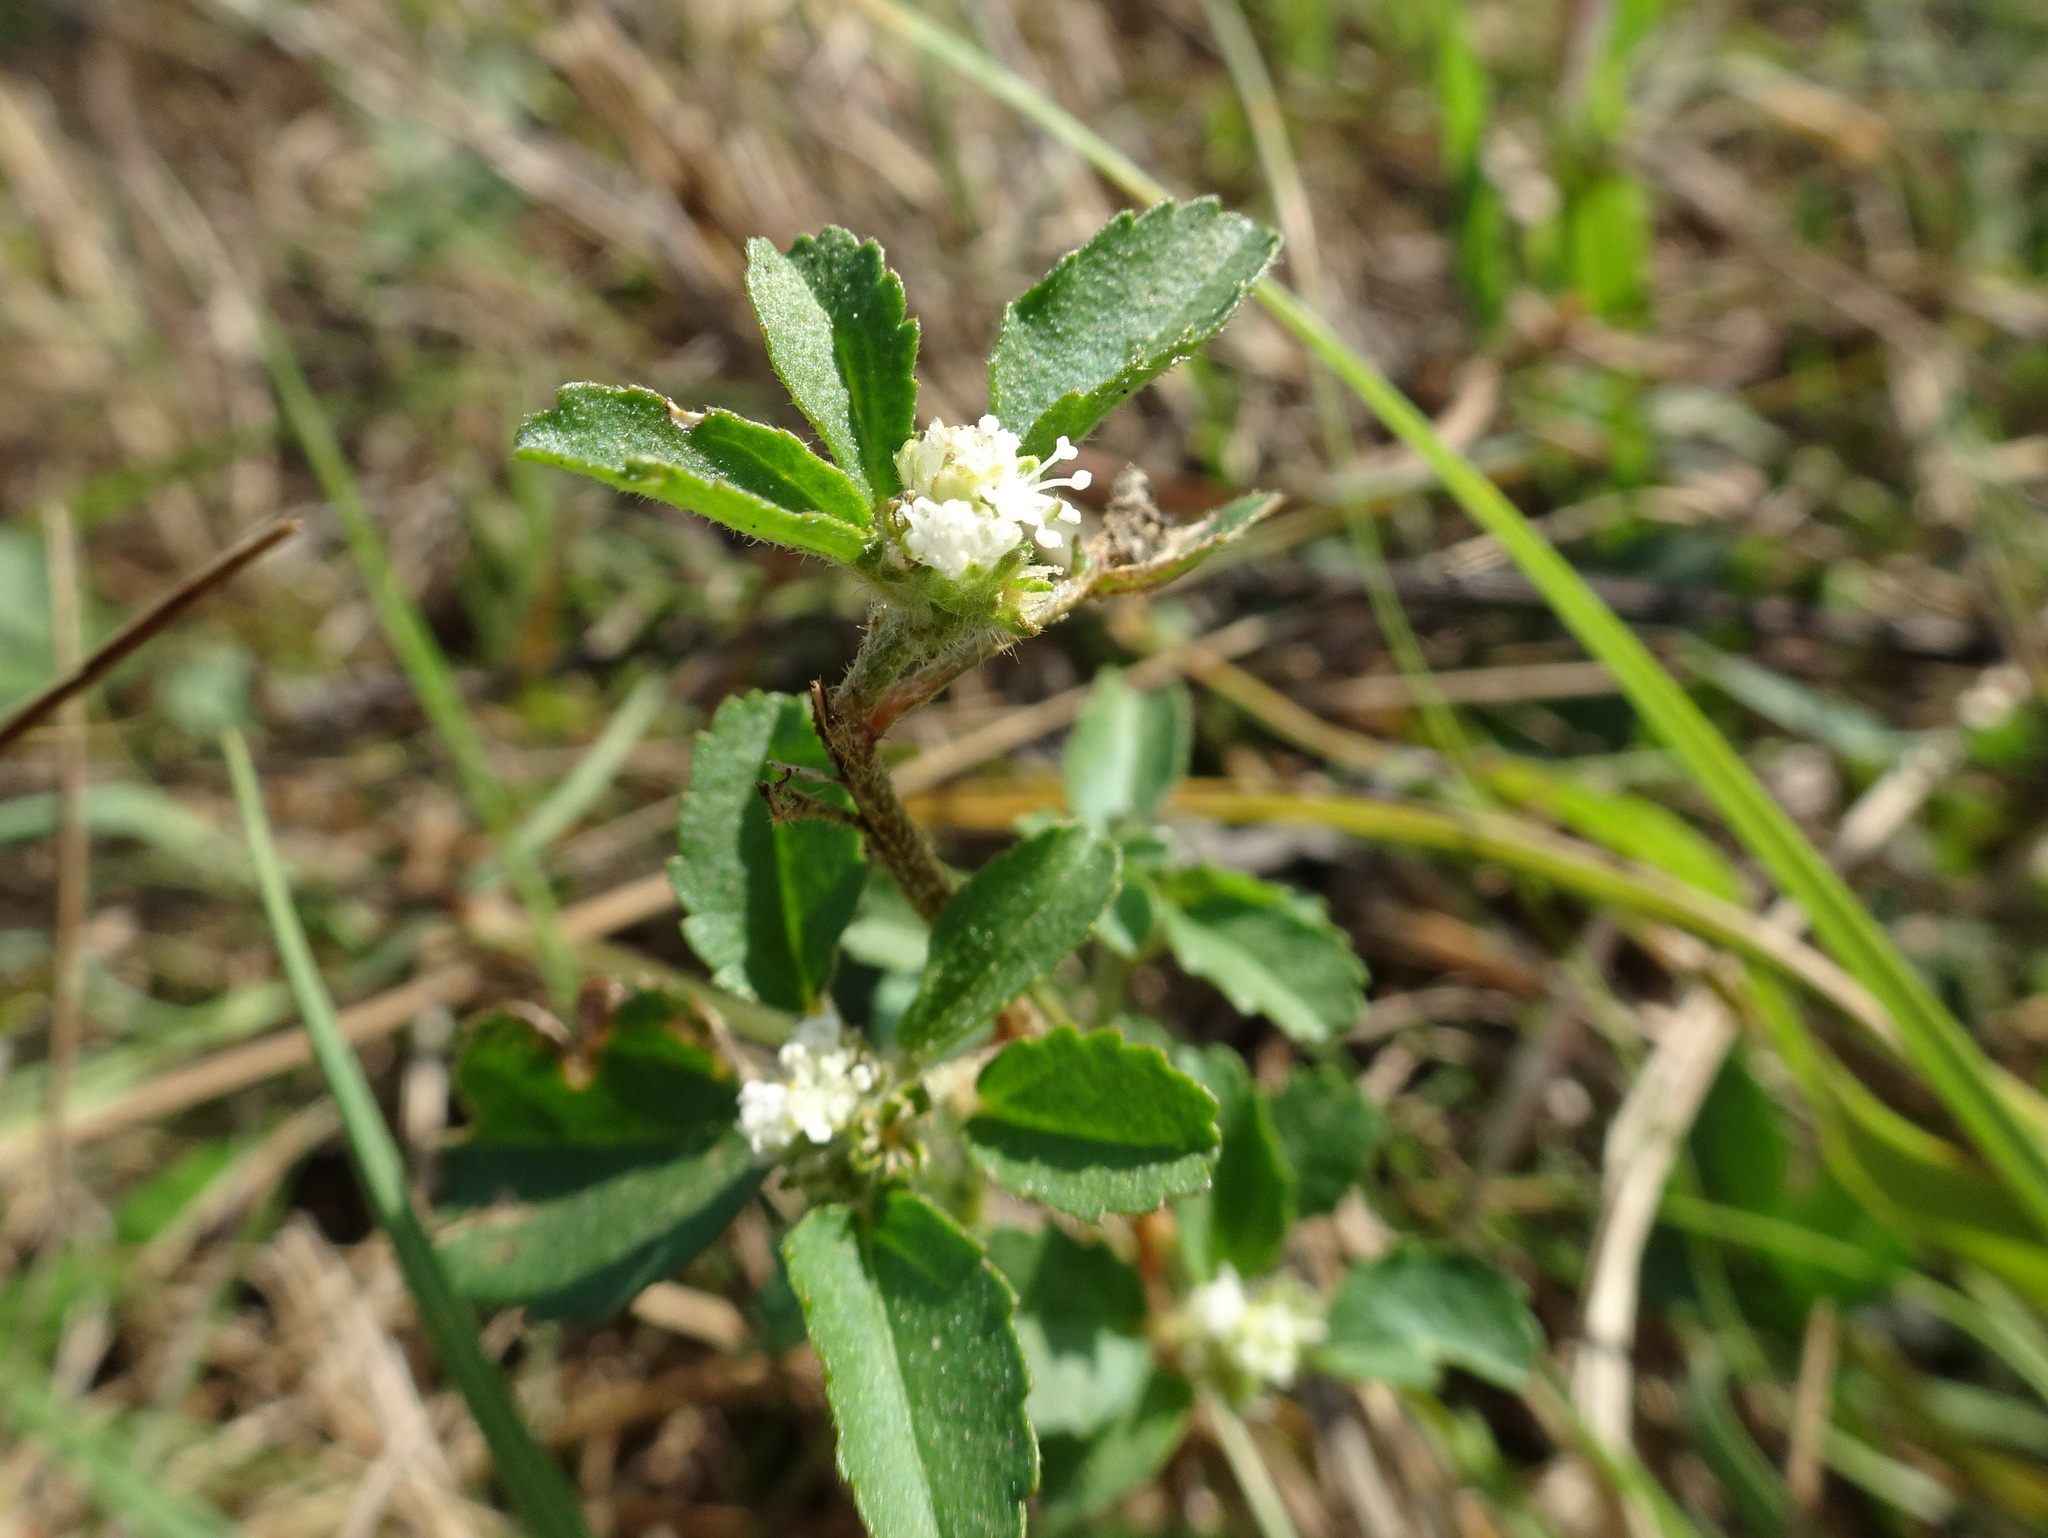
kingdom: Plantae
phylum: Tracheophyta
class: Magnoliopsida
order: Malpighiales
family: Euphorbiaceae
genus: Croton
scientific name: Croton glandulosus
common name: Tropic croton
